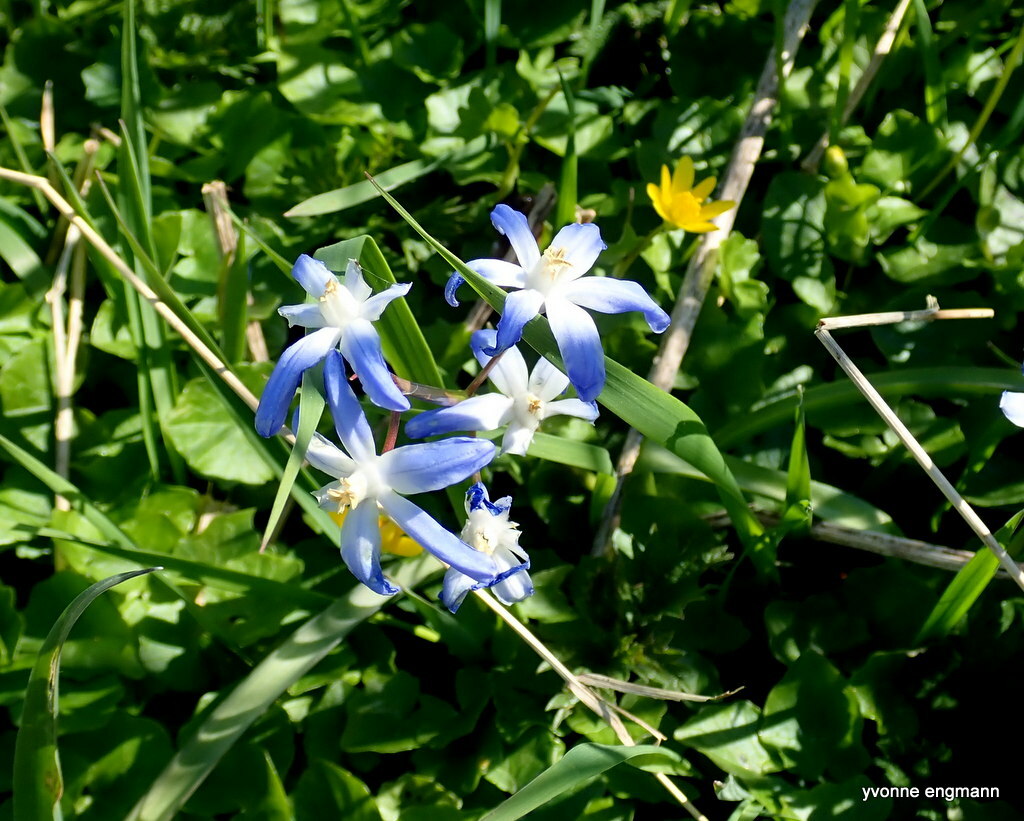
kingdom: Plantae
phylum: Tracheophyta
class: Liliopsida
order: Asparagales
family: Asparagaceae
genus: Scilla
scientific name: Scilla forbesii
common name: Glory-of-the-snow
